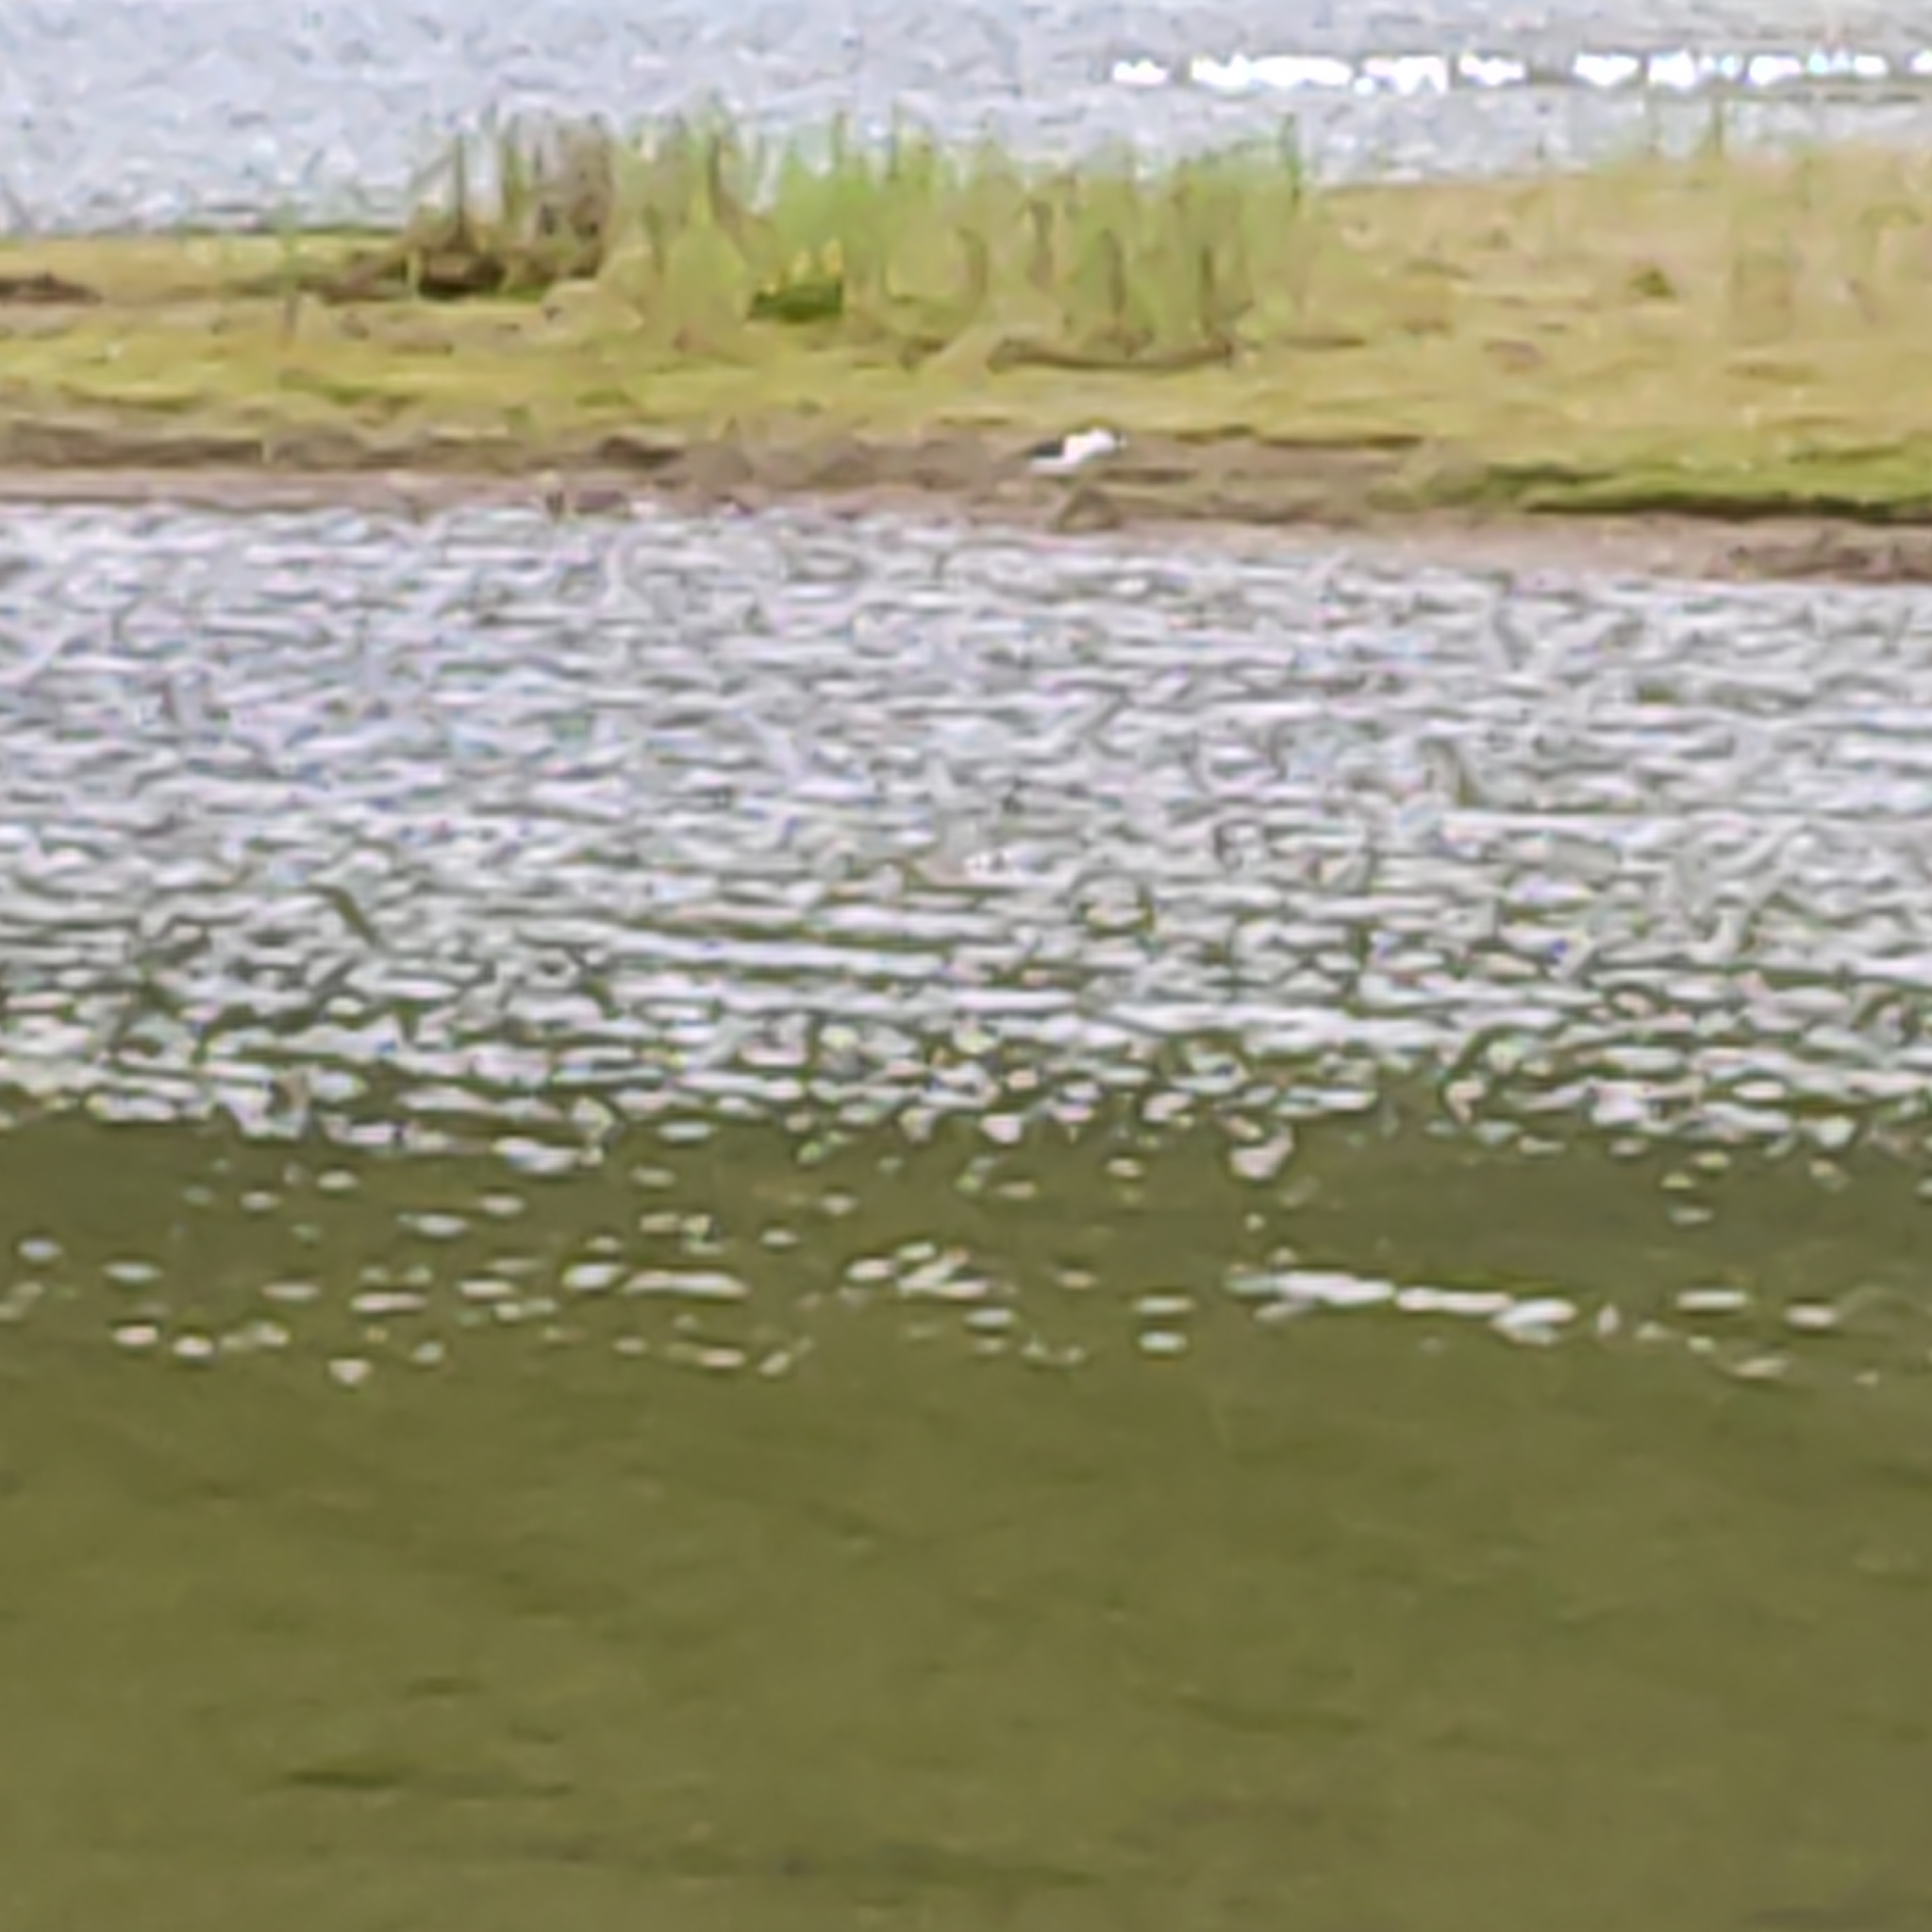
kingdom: Animalia
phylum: Chordata
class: Aves
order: Charadriiformes
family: Recurvirostridae
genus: Himantopus
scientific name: Himantopus leucocephalus
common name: White-headed stilt
